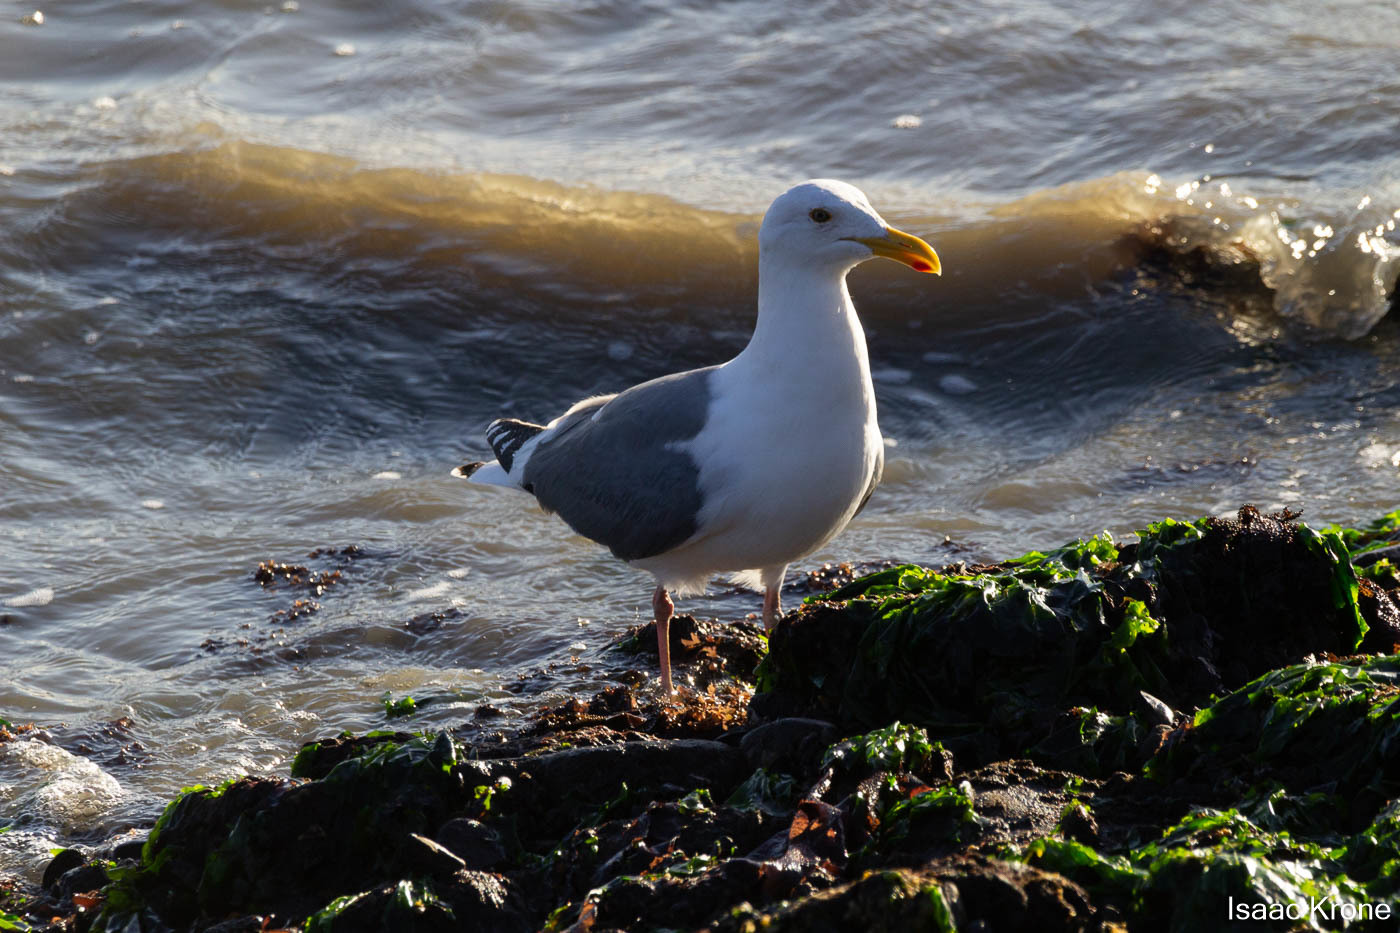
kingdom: Animalia
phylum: Chordata
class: Aves
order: Charadriiformes
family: Laridae
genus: Larus
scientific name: Larus occidentalis
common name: Western gull
